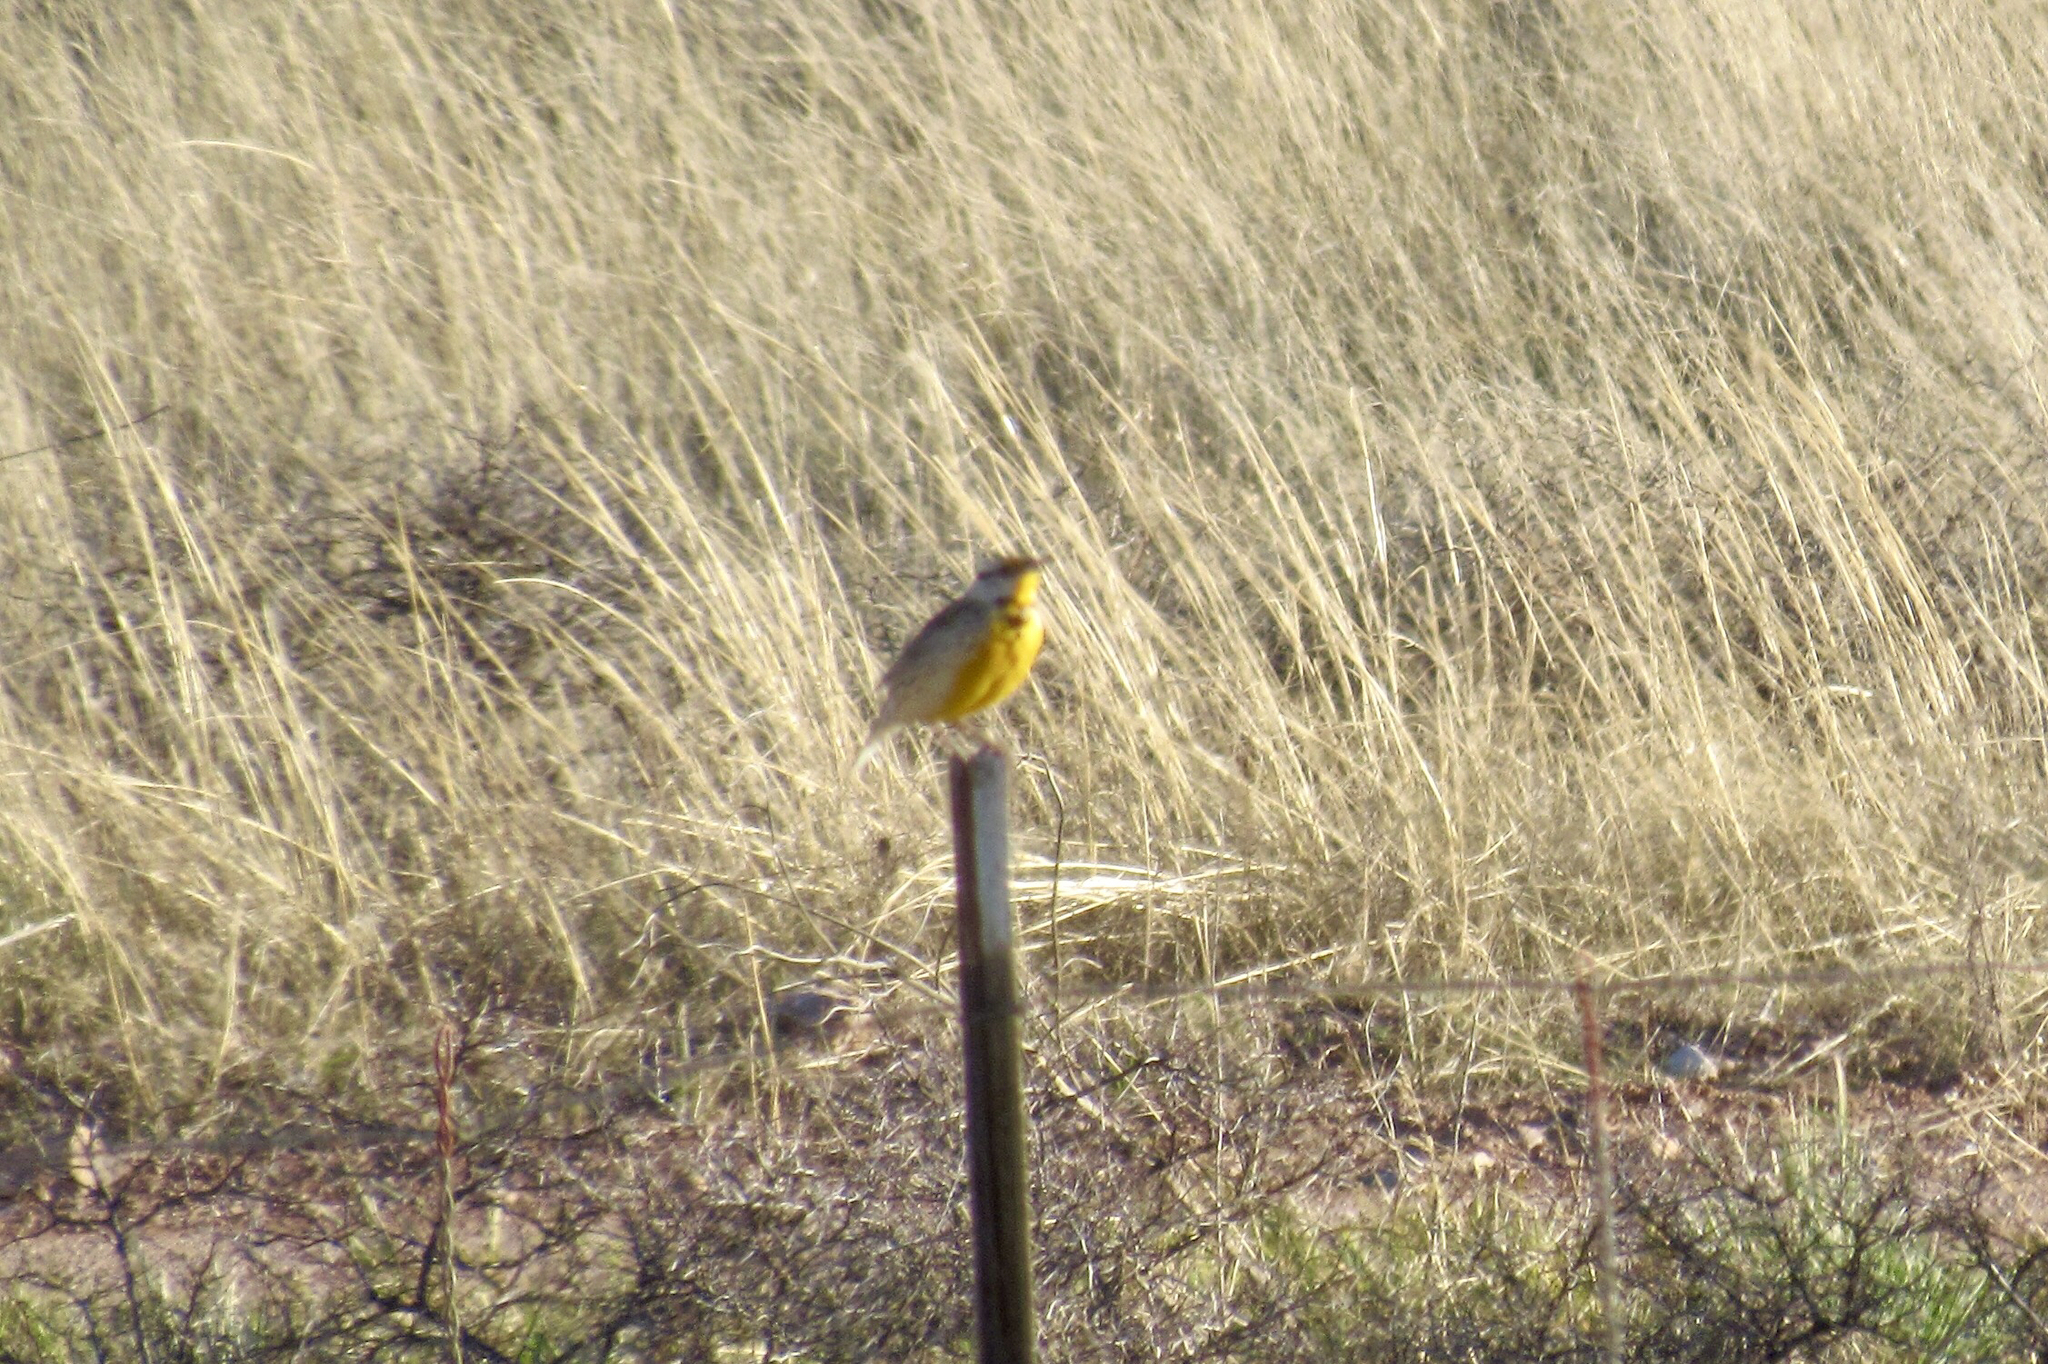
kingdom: Animalia
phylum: Chordata
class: Aves
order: Passeriformes
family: Icteridae
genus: Sturnella
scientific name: Sturnella lilianae
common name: Lilian's meadowlark
